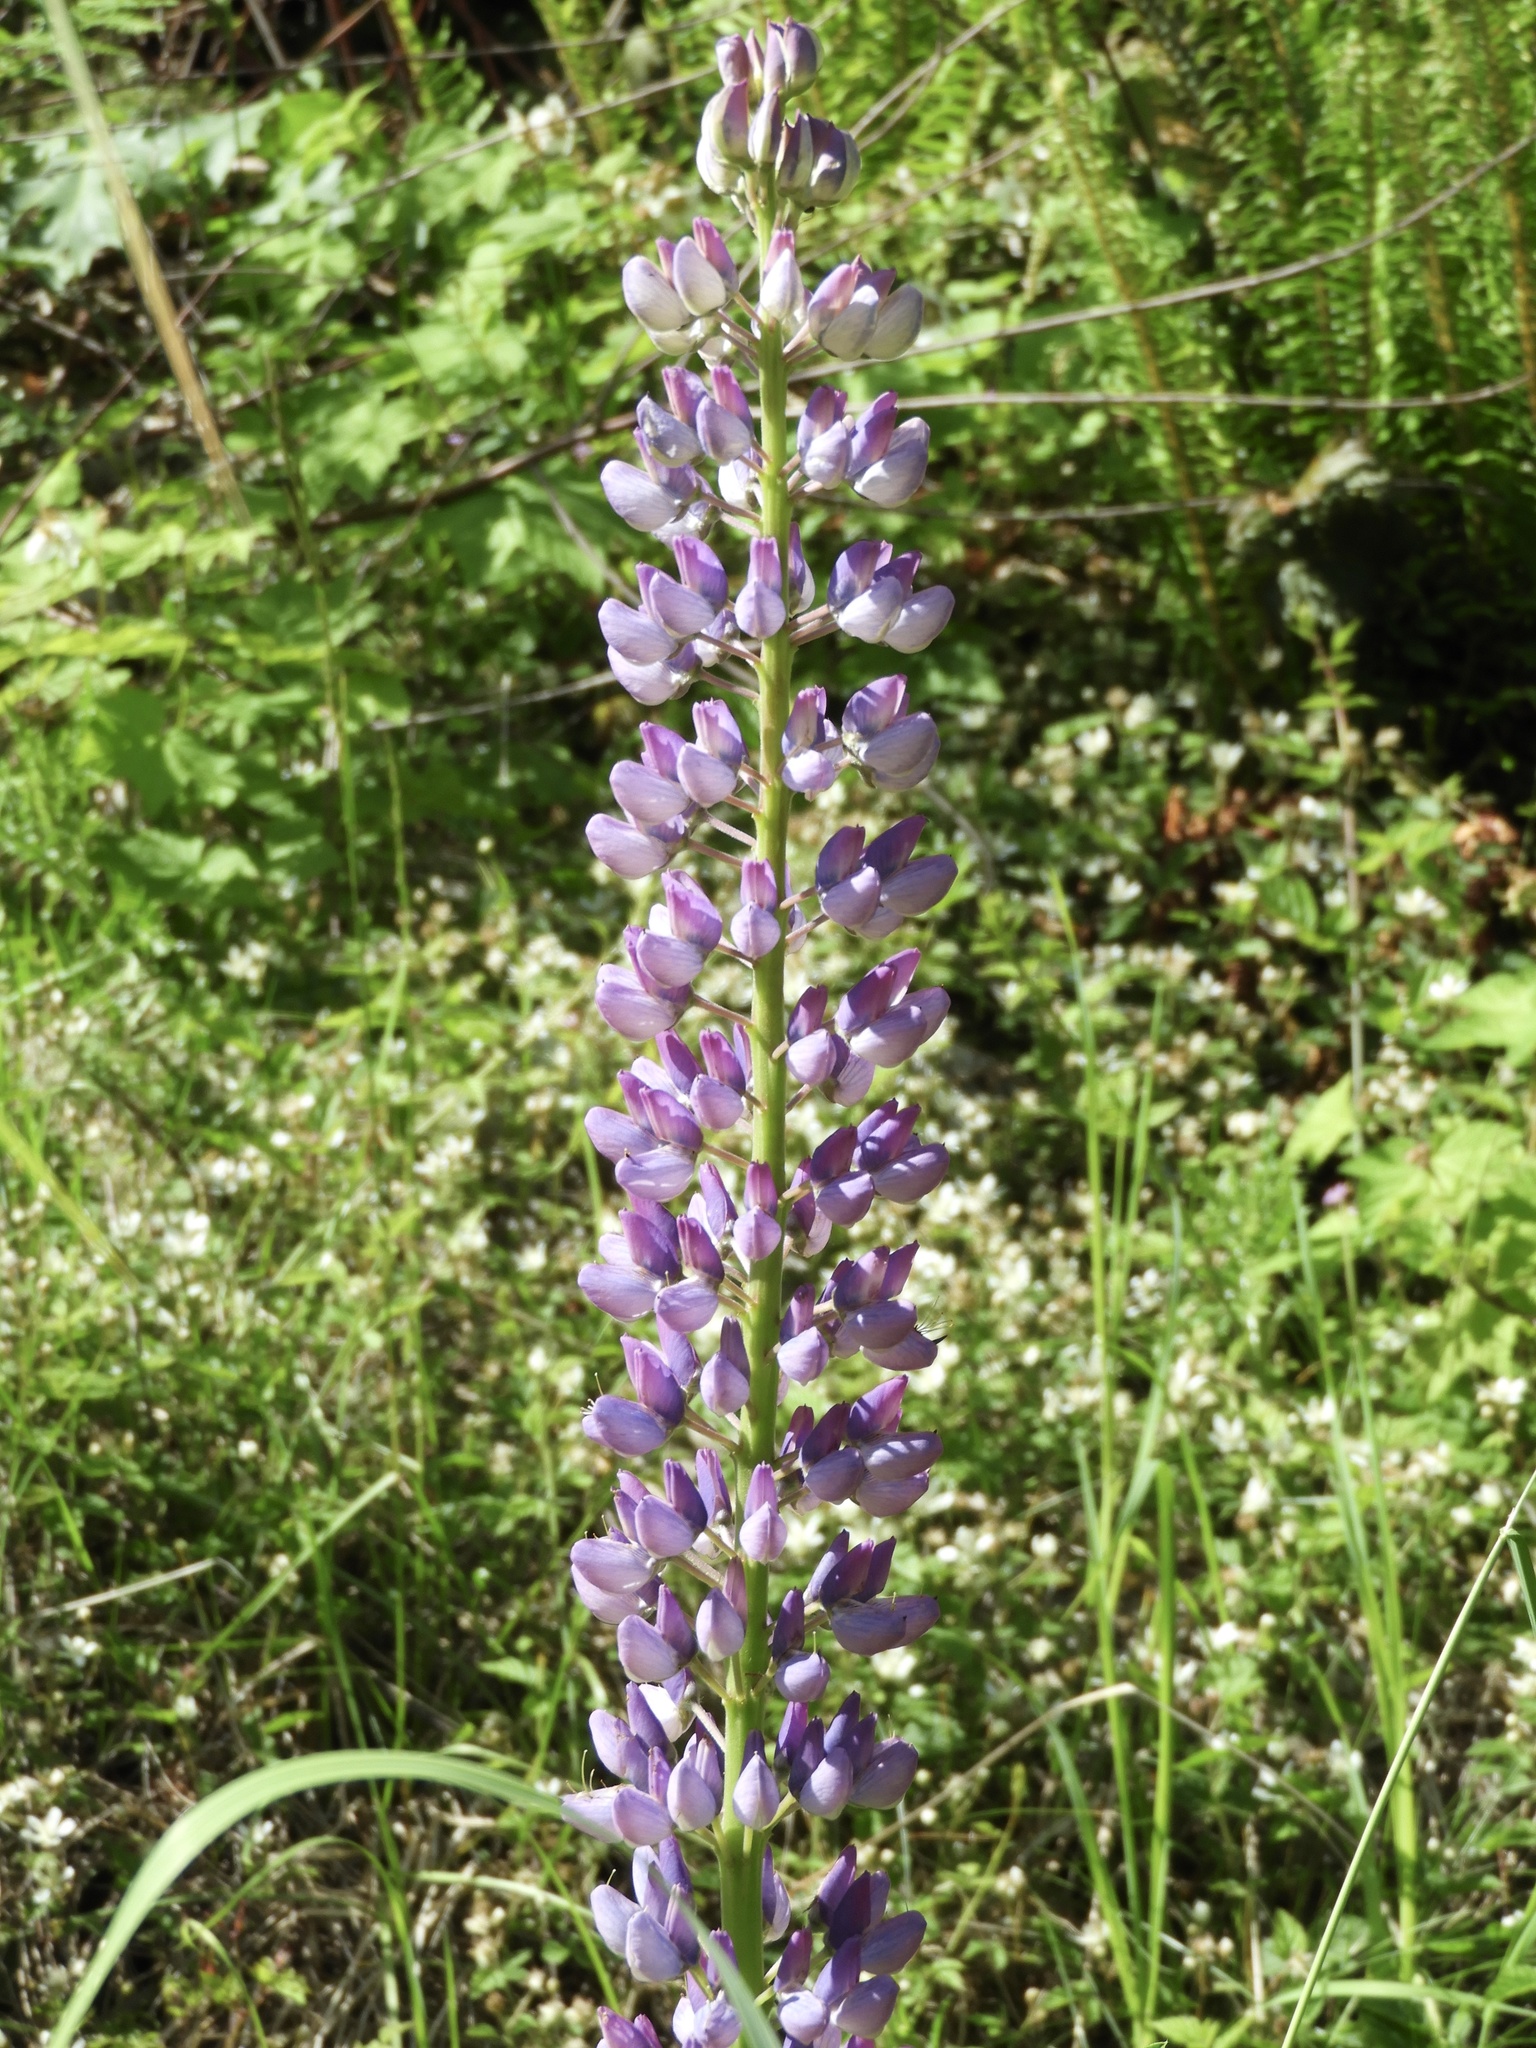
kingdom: Plantae
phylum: Tracheophyta
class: Magnoliopsida
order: Fabales
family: Fabaceae
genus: Lupinus
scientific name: Lupinus polyphyllus
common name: Garden lupin
